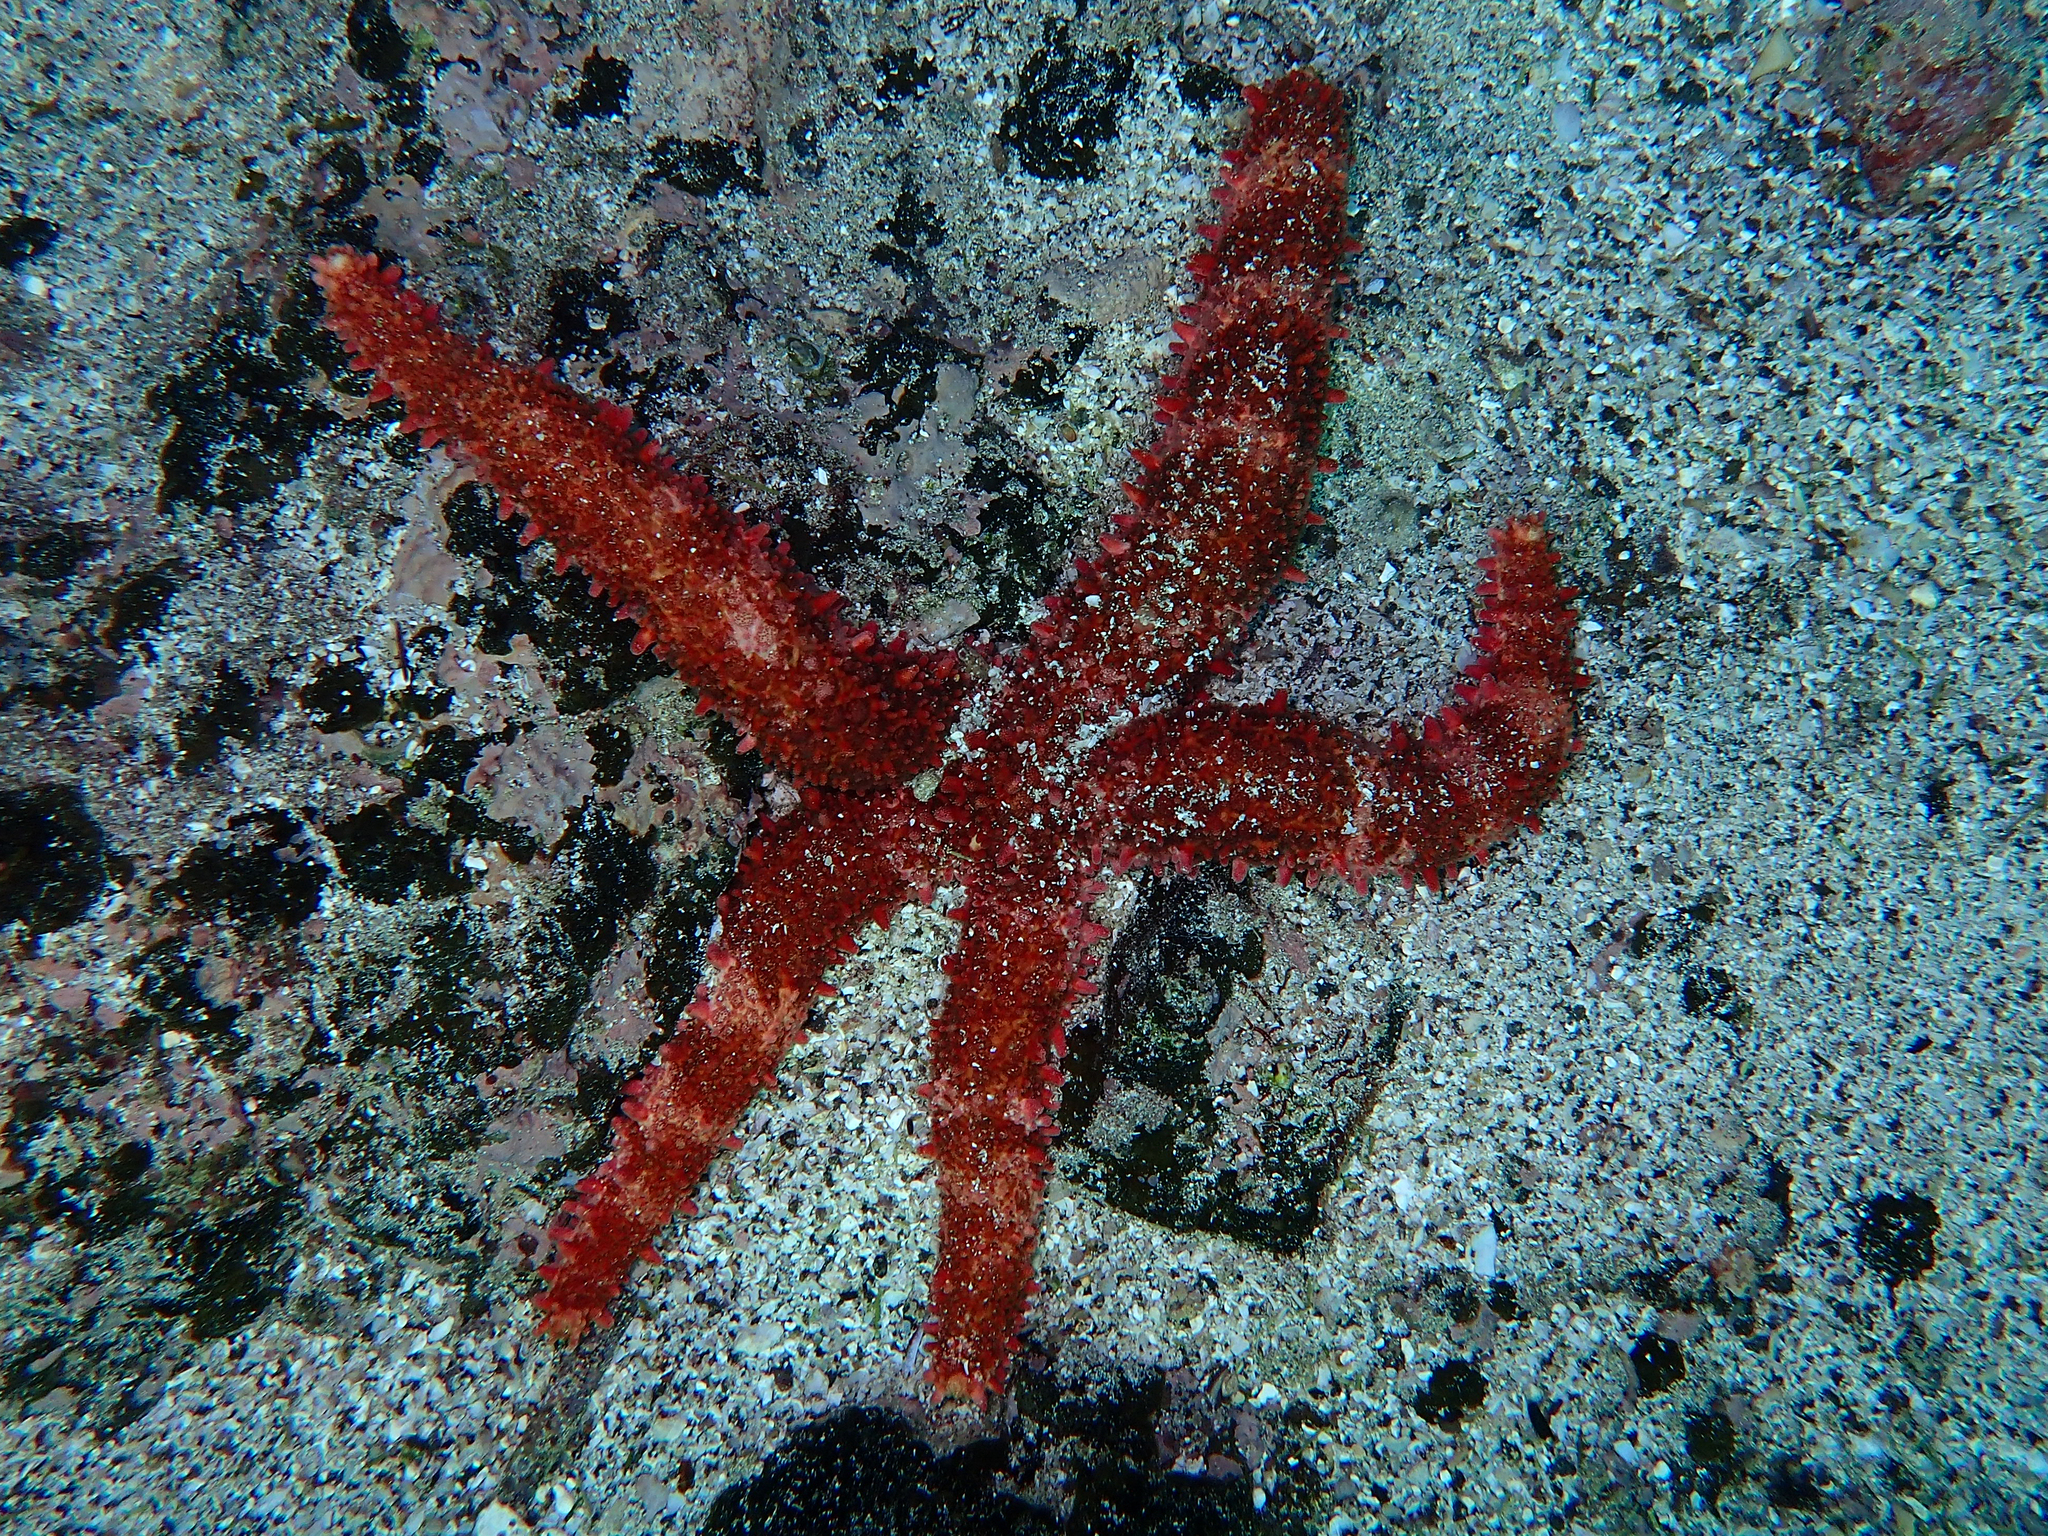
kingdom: Animalia
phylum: Echinodermata
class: Asteroidea
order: Valvatida
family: Mithrodiidae
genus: Mithrodia
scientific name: Mithrodia bradleyi
